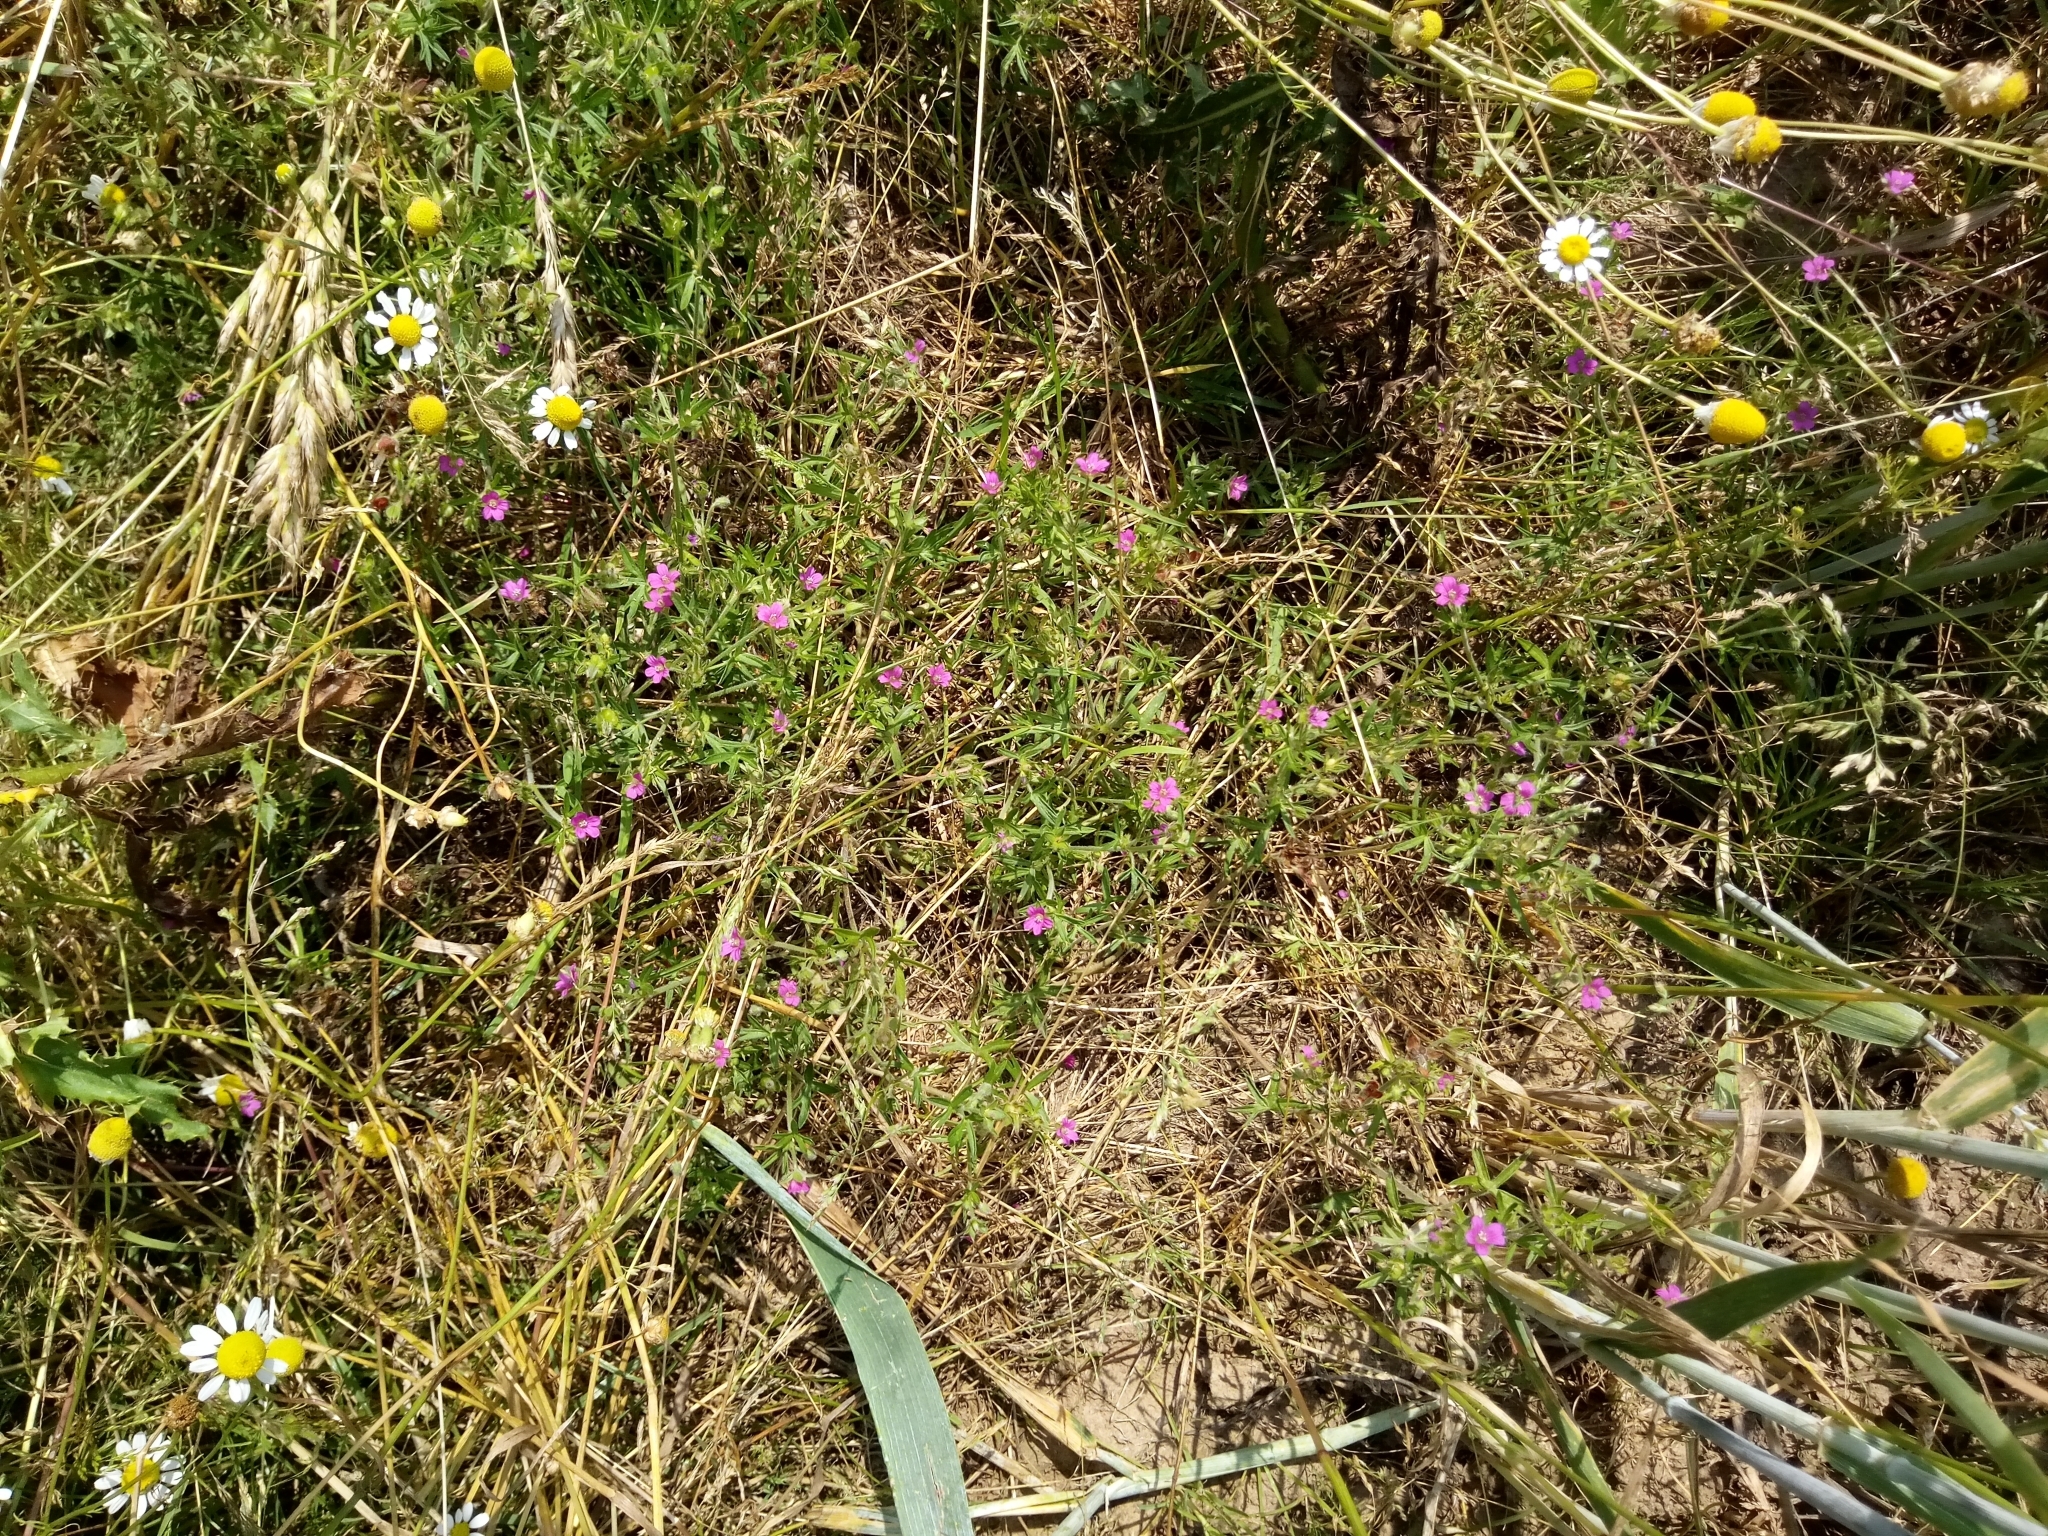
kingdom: Plantae
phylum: Tracheophyta
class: Magnoliopsida
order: Geraniales
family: Geraniaceae
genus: Geranium
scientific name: Geranium dissectum
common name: Cut-leaved crane's-bill
